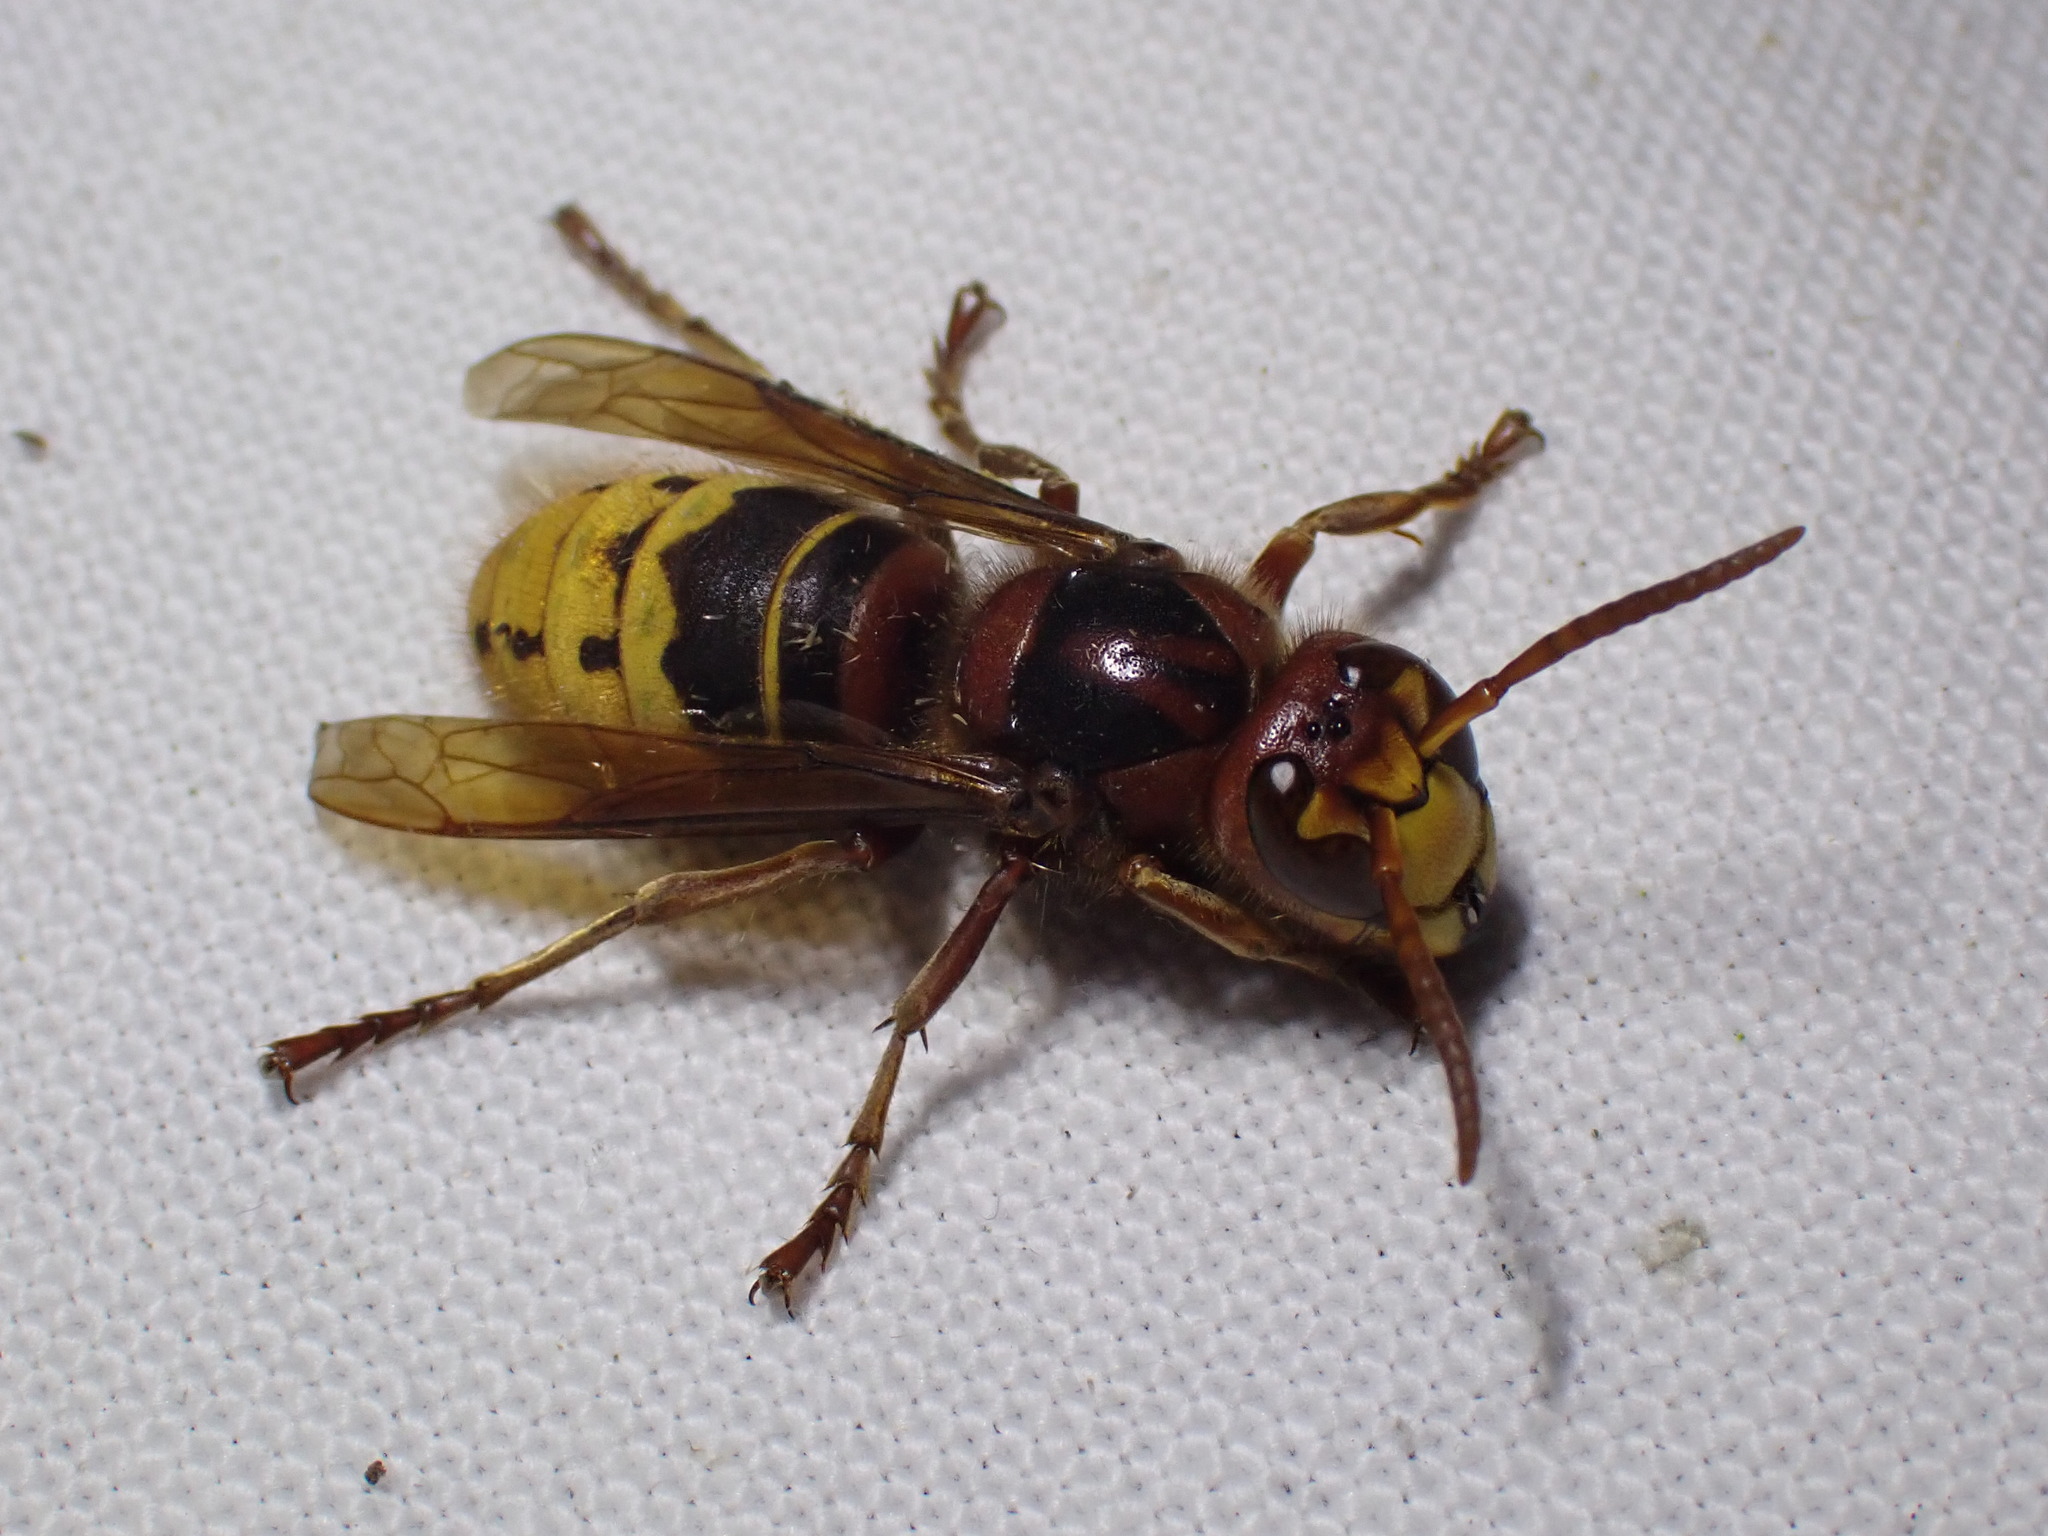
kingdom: Animalia
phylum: Arthropoda
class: Insecta
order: Hymenoptera
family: Vespidae
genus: Vespa
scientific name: Vespa crabro
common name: Hornet
